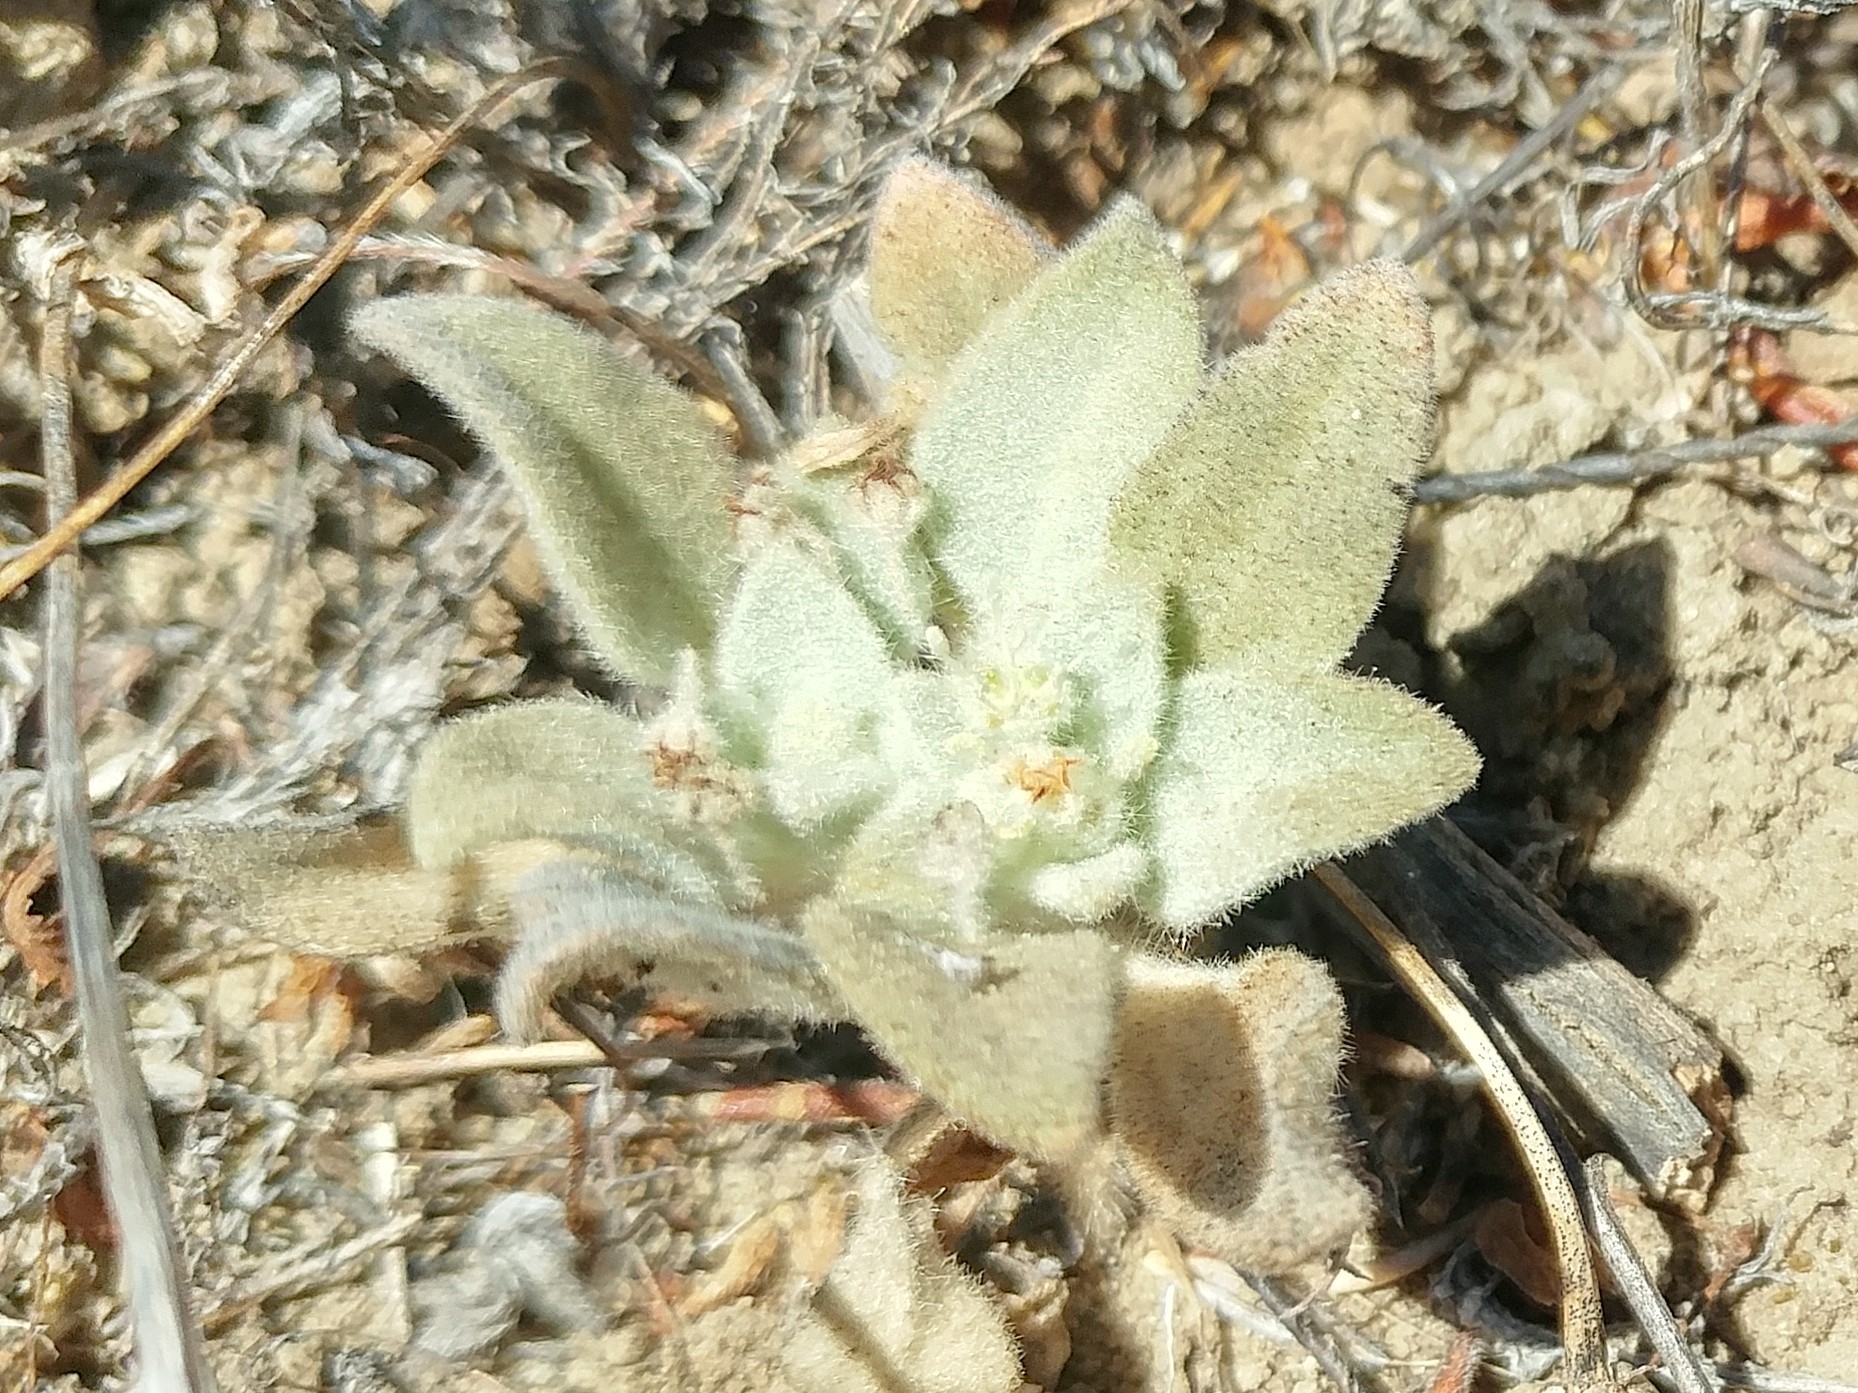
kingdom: Plantae
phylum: Tracheophyta
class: Magnoliopsida
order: Malpighiales
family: Euphorbiaceae
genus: Croton
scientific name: Croton setiger
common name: Dove weed
